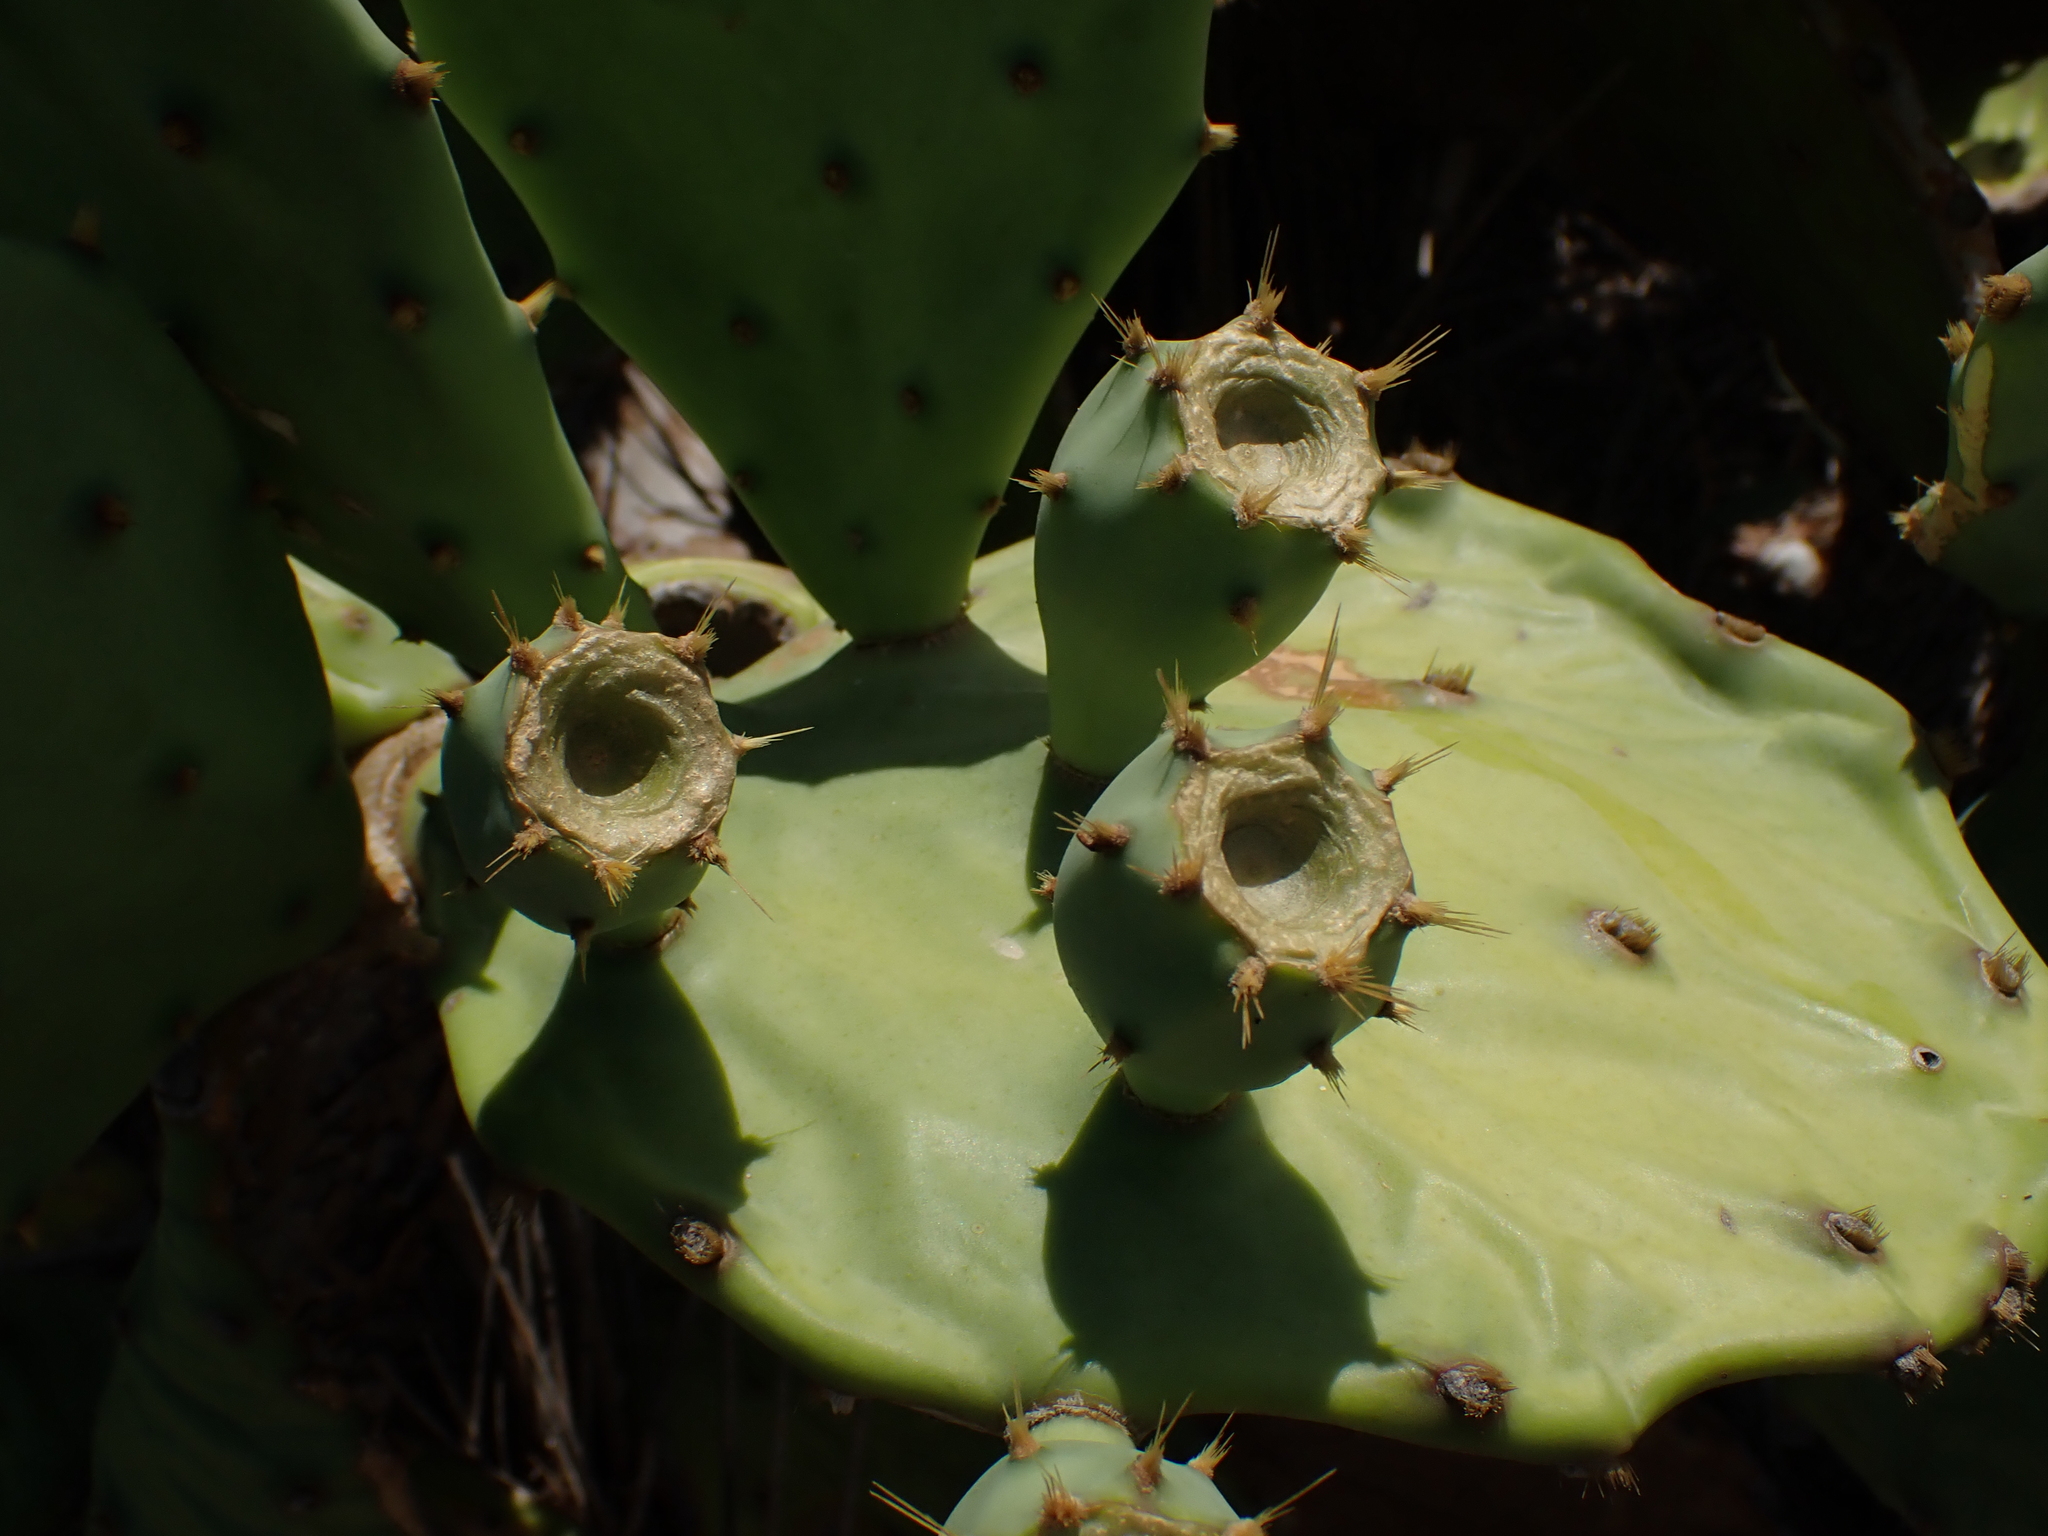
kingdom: Plantae
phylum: Tracheophyta
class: Magnoliopsida
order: Caryophyllales
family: Cactaceae
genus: Opuntia
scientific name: Opuntia anahuacensis
